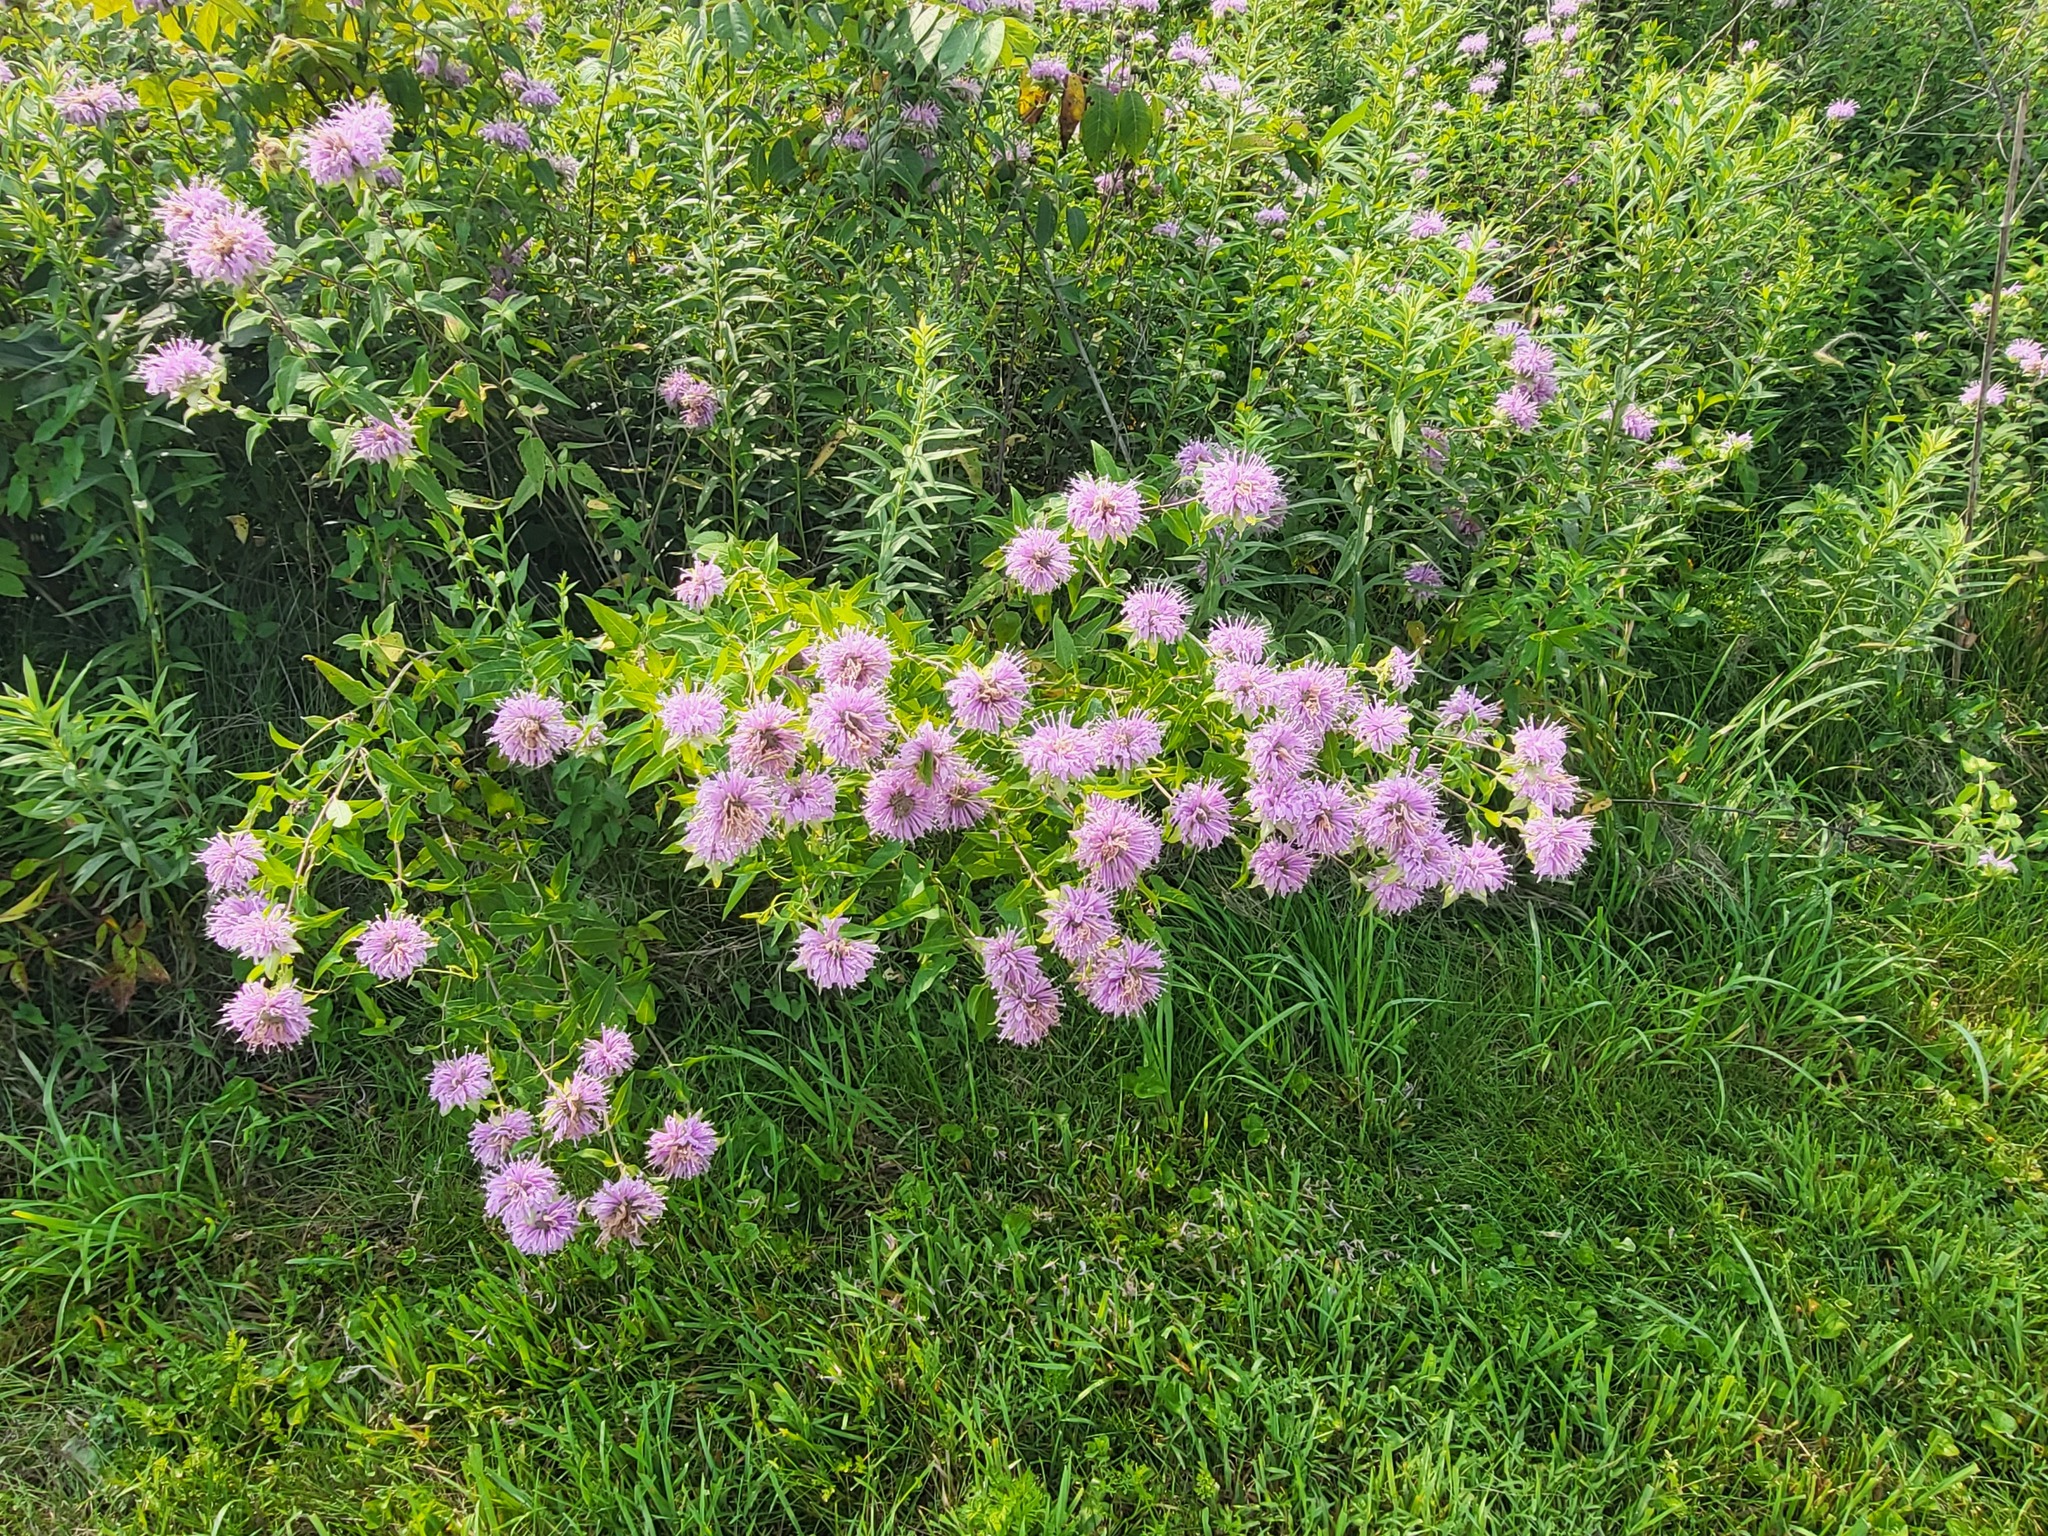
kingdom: Plantae
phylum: Tracheophyta
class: Magnoliopsida
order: Lamiales
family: Lamiaceae
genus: Monarda
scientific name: Monarda fistulosa
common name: Purple beebalm
